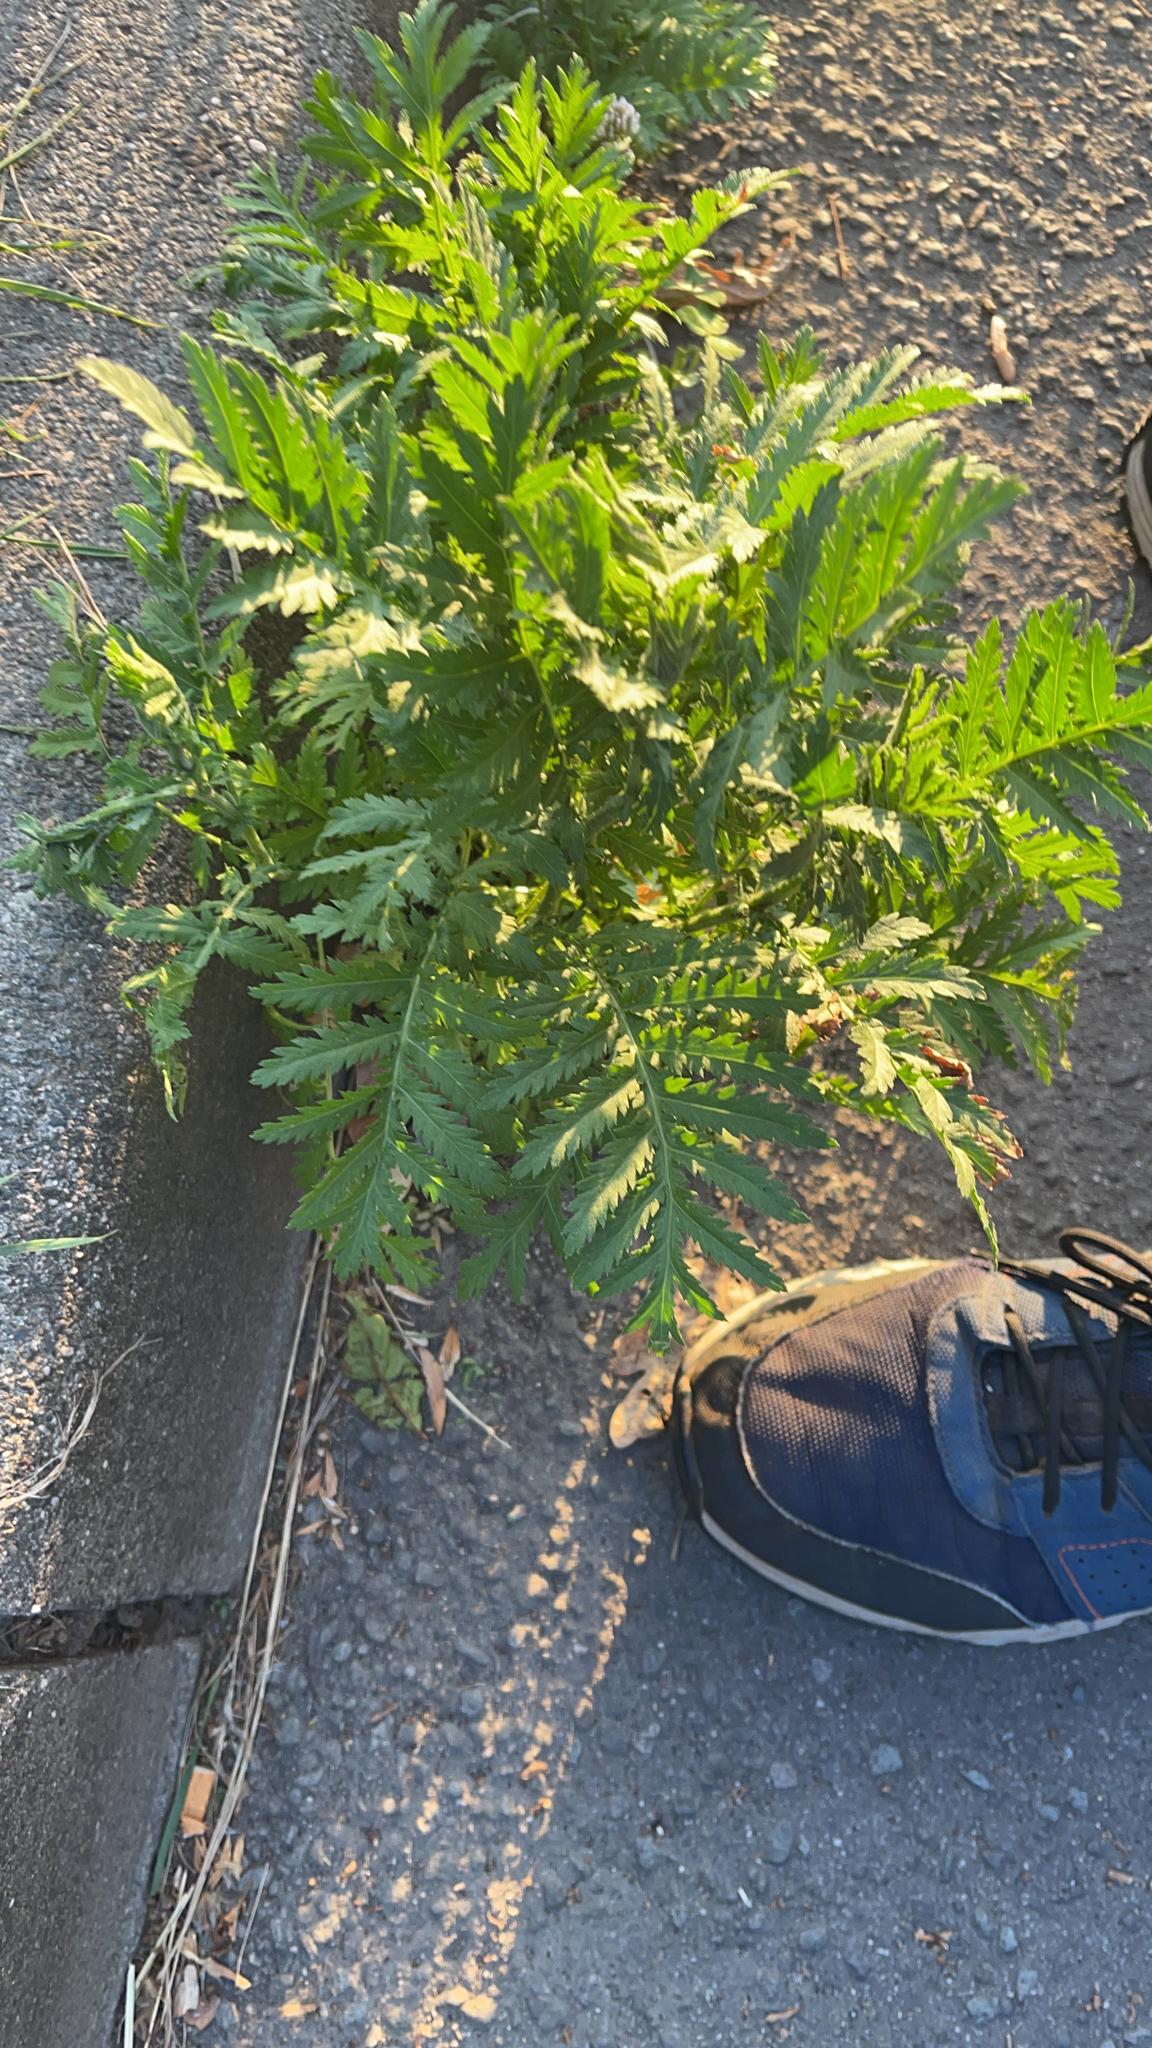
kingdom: Plantae
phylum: Tracheophyta
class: Magnoliopsida
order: Asterales
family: Asteraceae
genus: Tanacetum
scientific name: Tanacetum vulgare
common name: Common tansy
